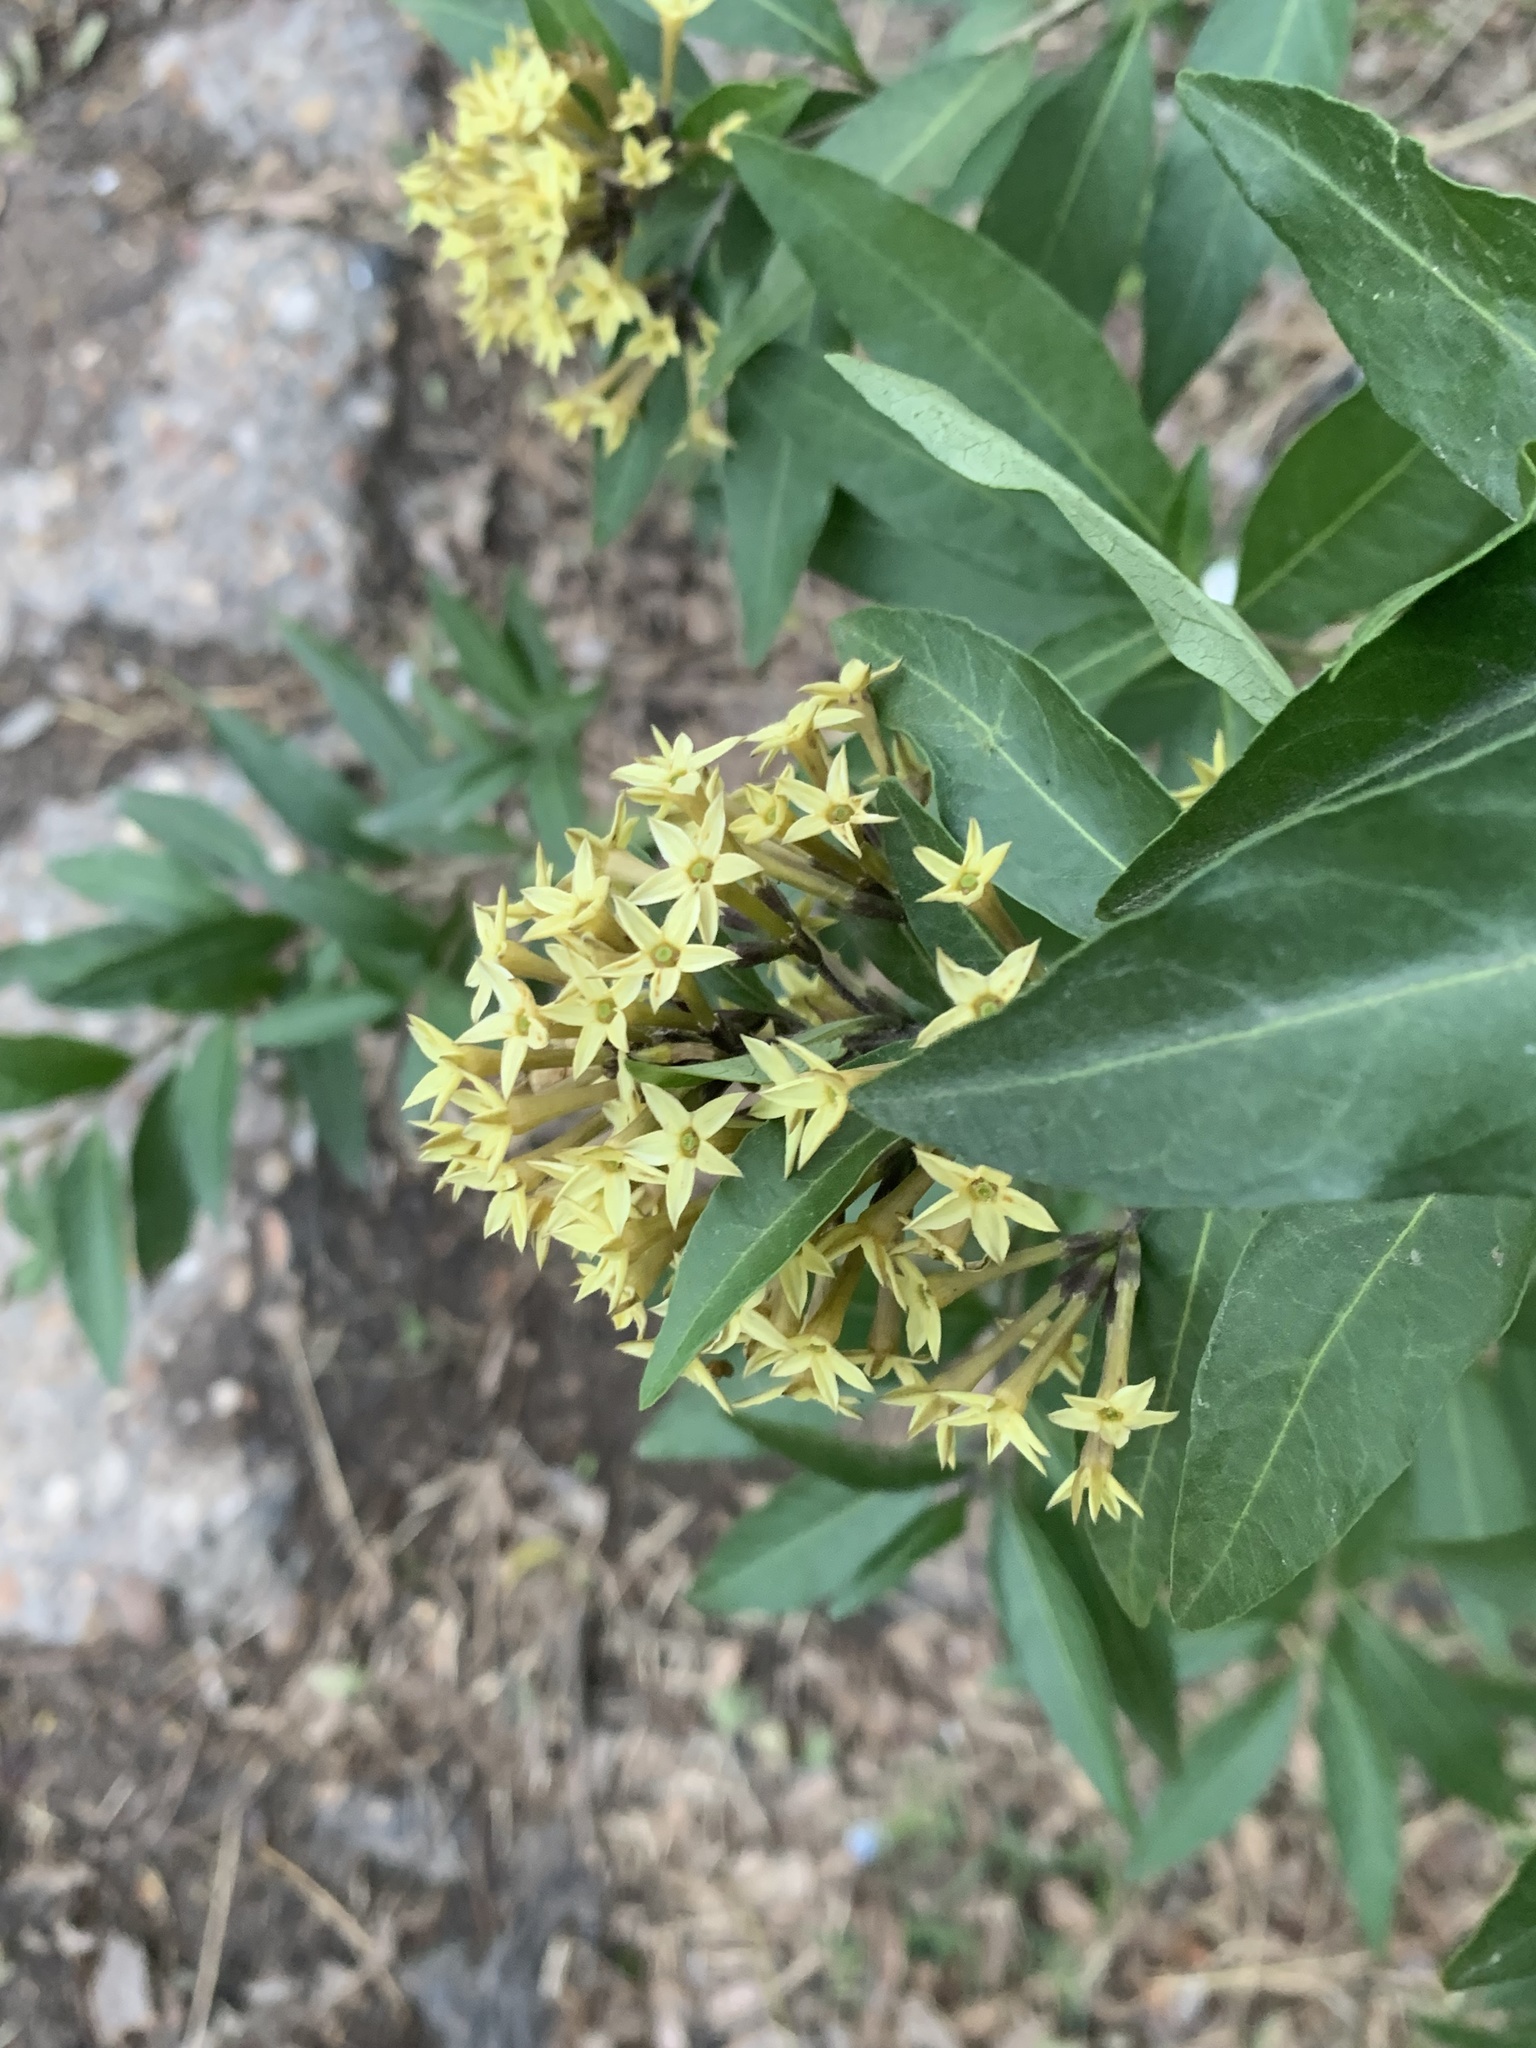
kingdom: Plantae
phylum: Tracheophyta
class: Magnoliopsida
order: Solanales
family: Solanaceae
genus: Cestrum
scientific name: Cestrum parqui
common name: Chilean cestrum
